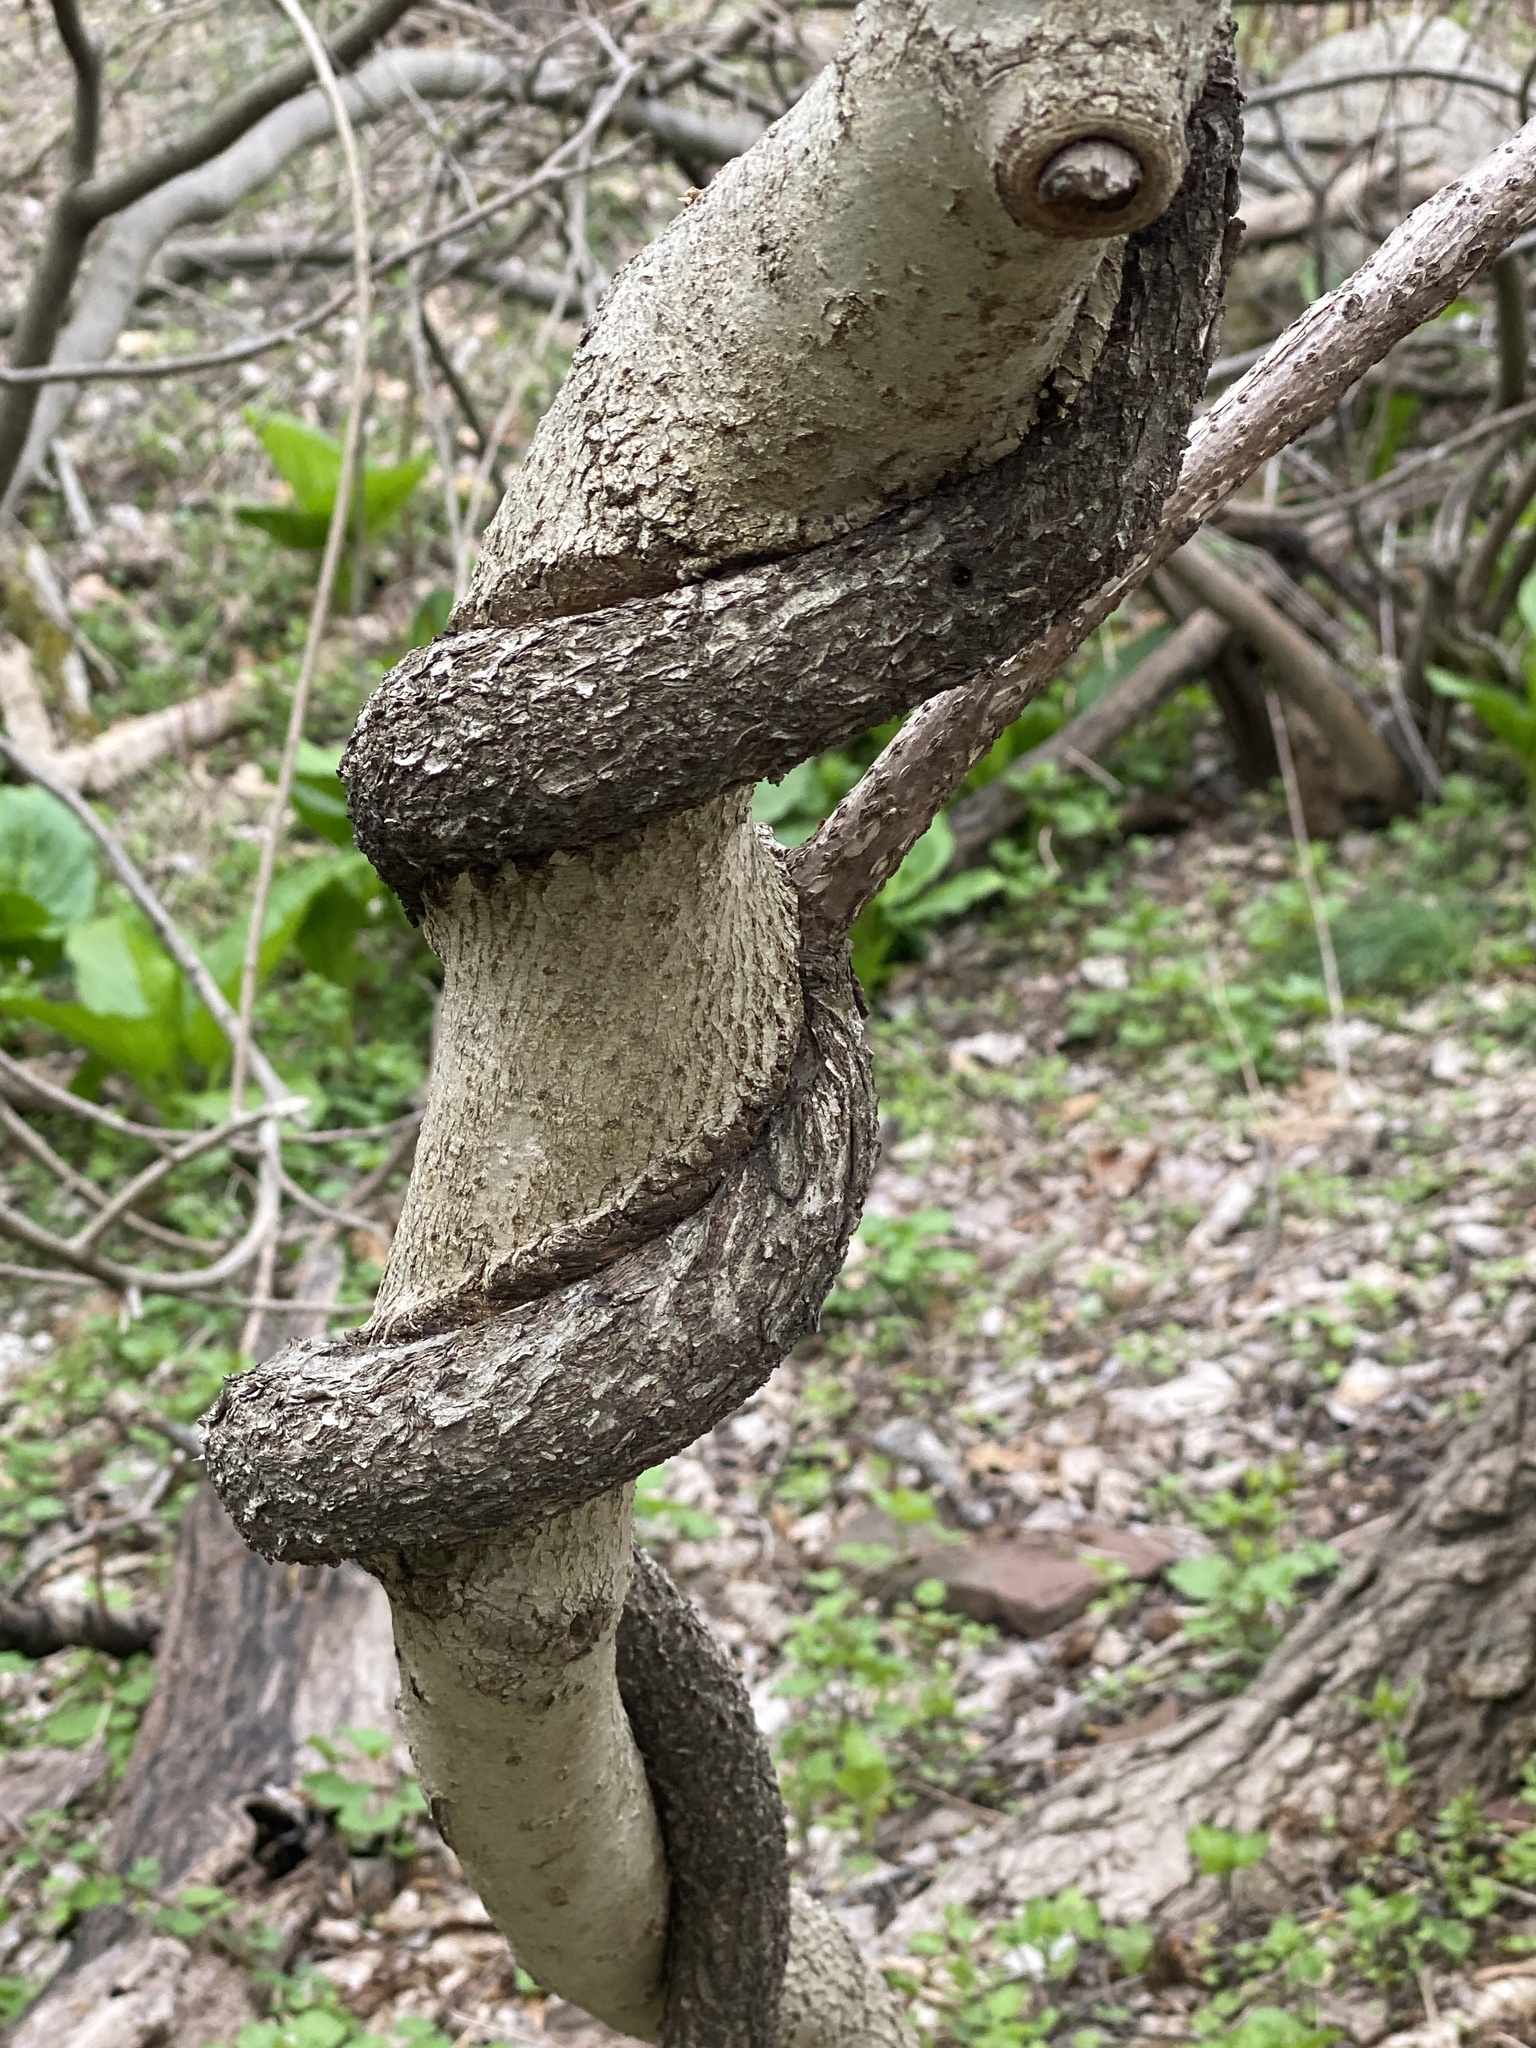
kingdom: Plantae
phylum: Tracheophyta
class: Magnoliopsida
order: Celastrales
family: Celastraceae
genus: Celastrus
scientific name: Celastrus orbiculatus
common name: Oriental bittersweet
